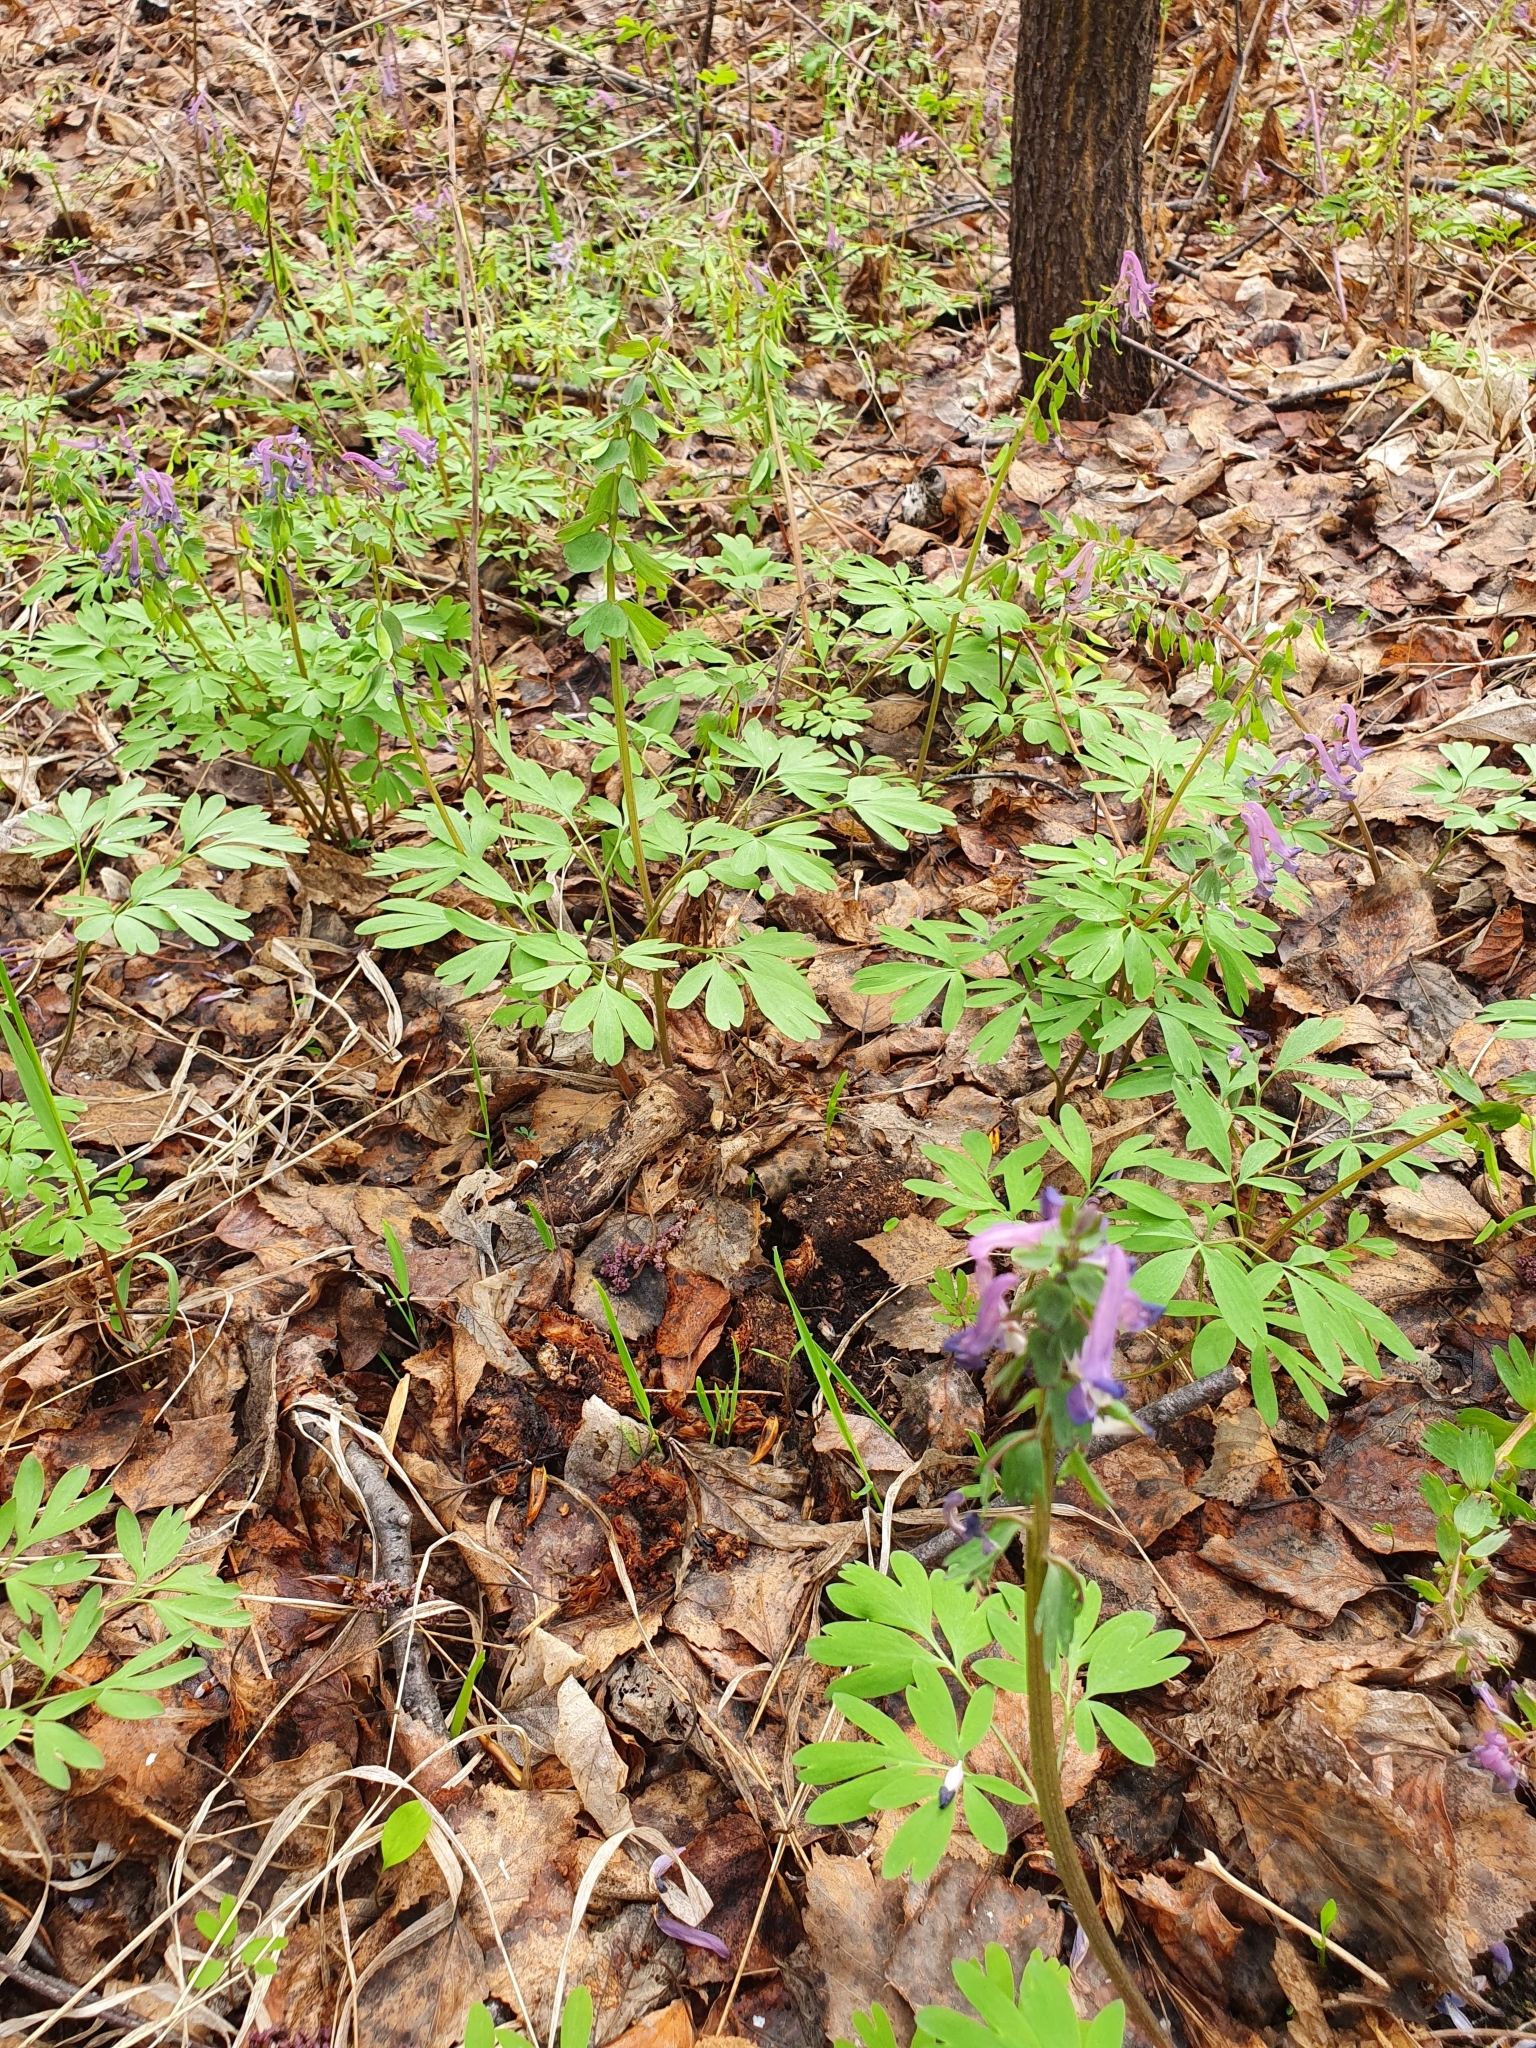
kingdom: Plantae
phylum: Tracheophyta
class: Magnoliopsida
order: Ranunculales
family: Papaveraceae
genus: Corydalis
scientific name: Corydalis solida
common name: Bird-in-a-bush
